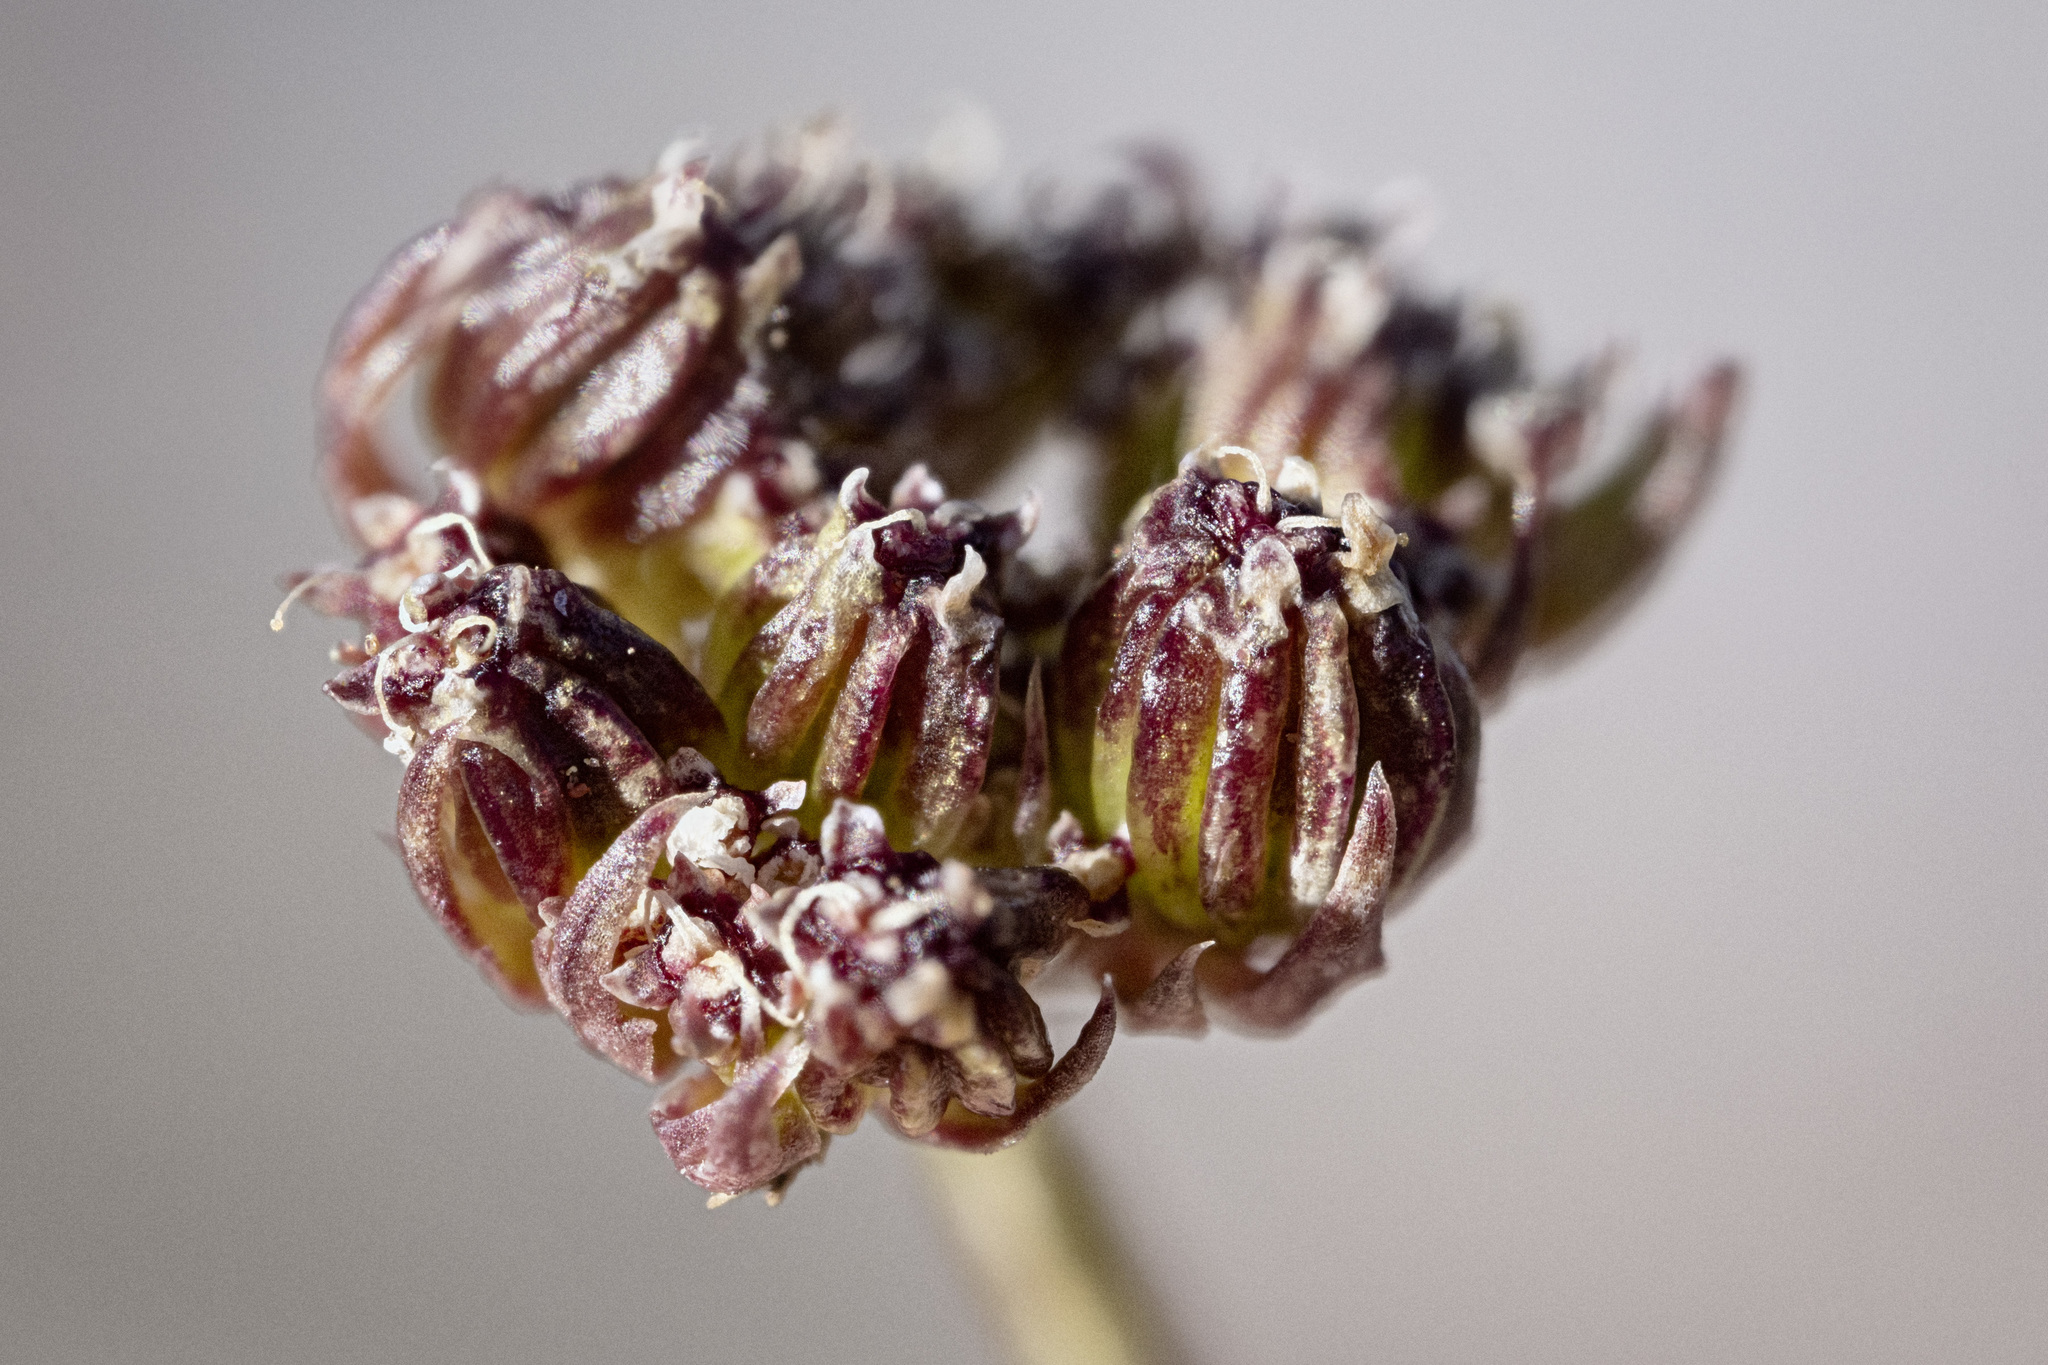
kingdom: Plantae
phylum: Tracheophyta
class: Magnoliopsida
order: Apiales
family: Apiaceae
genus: Oreoxis
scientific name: Oreoxis bakeri
